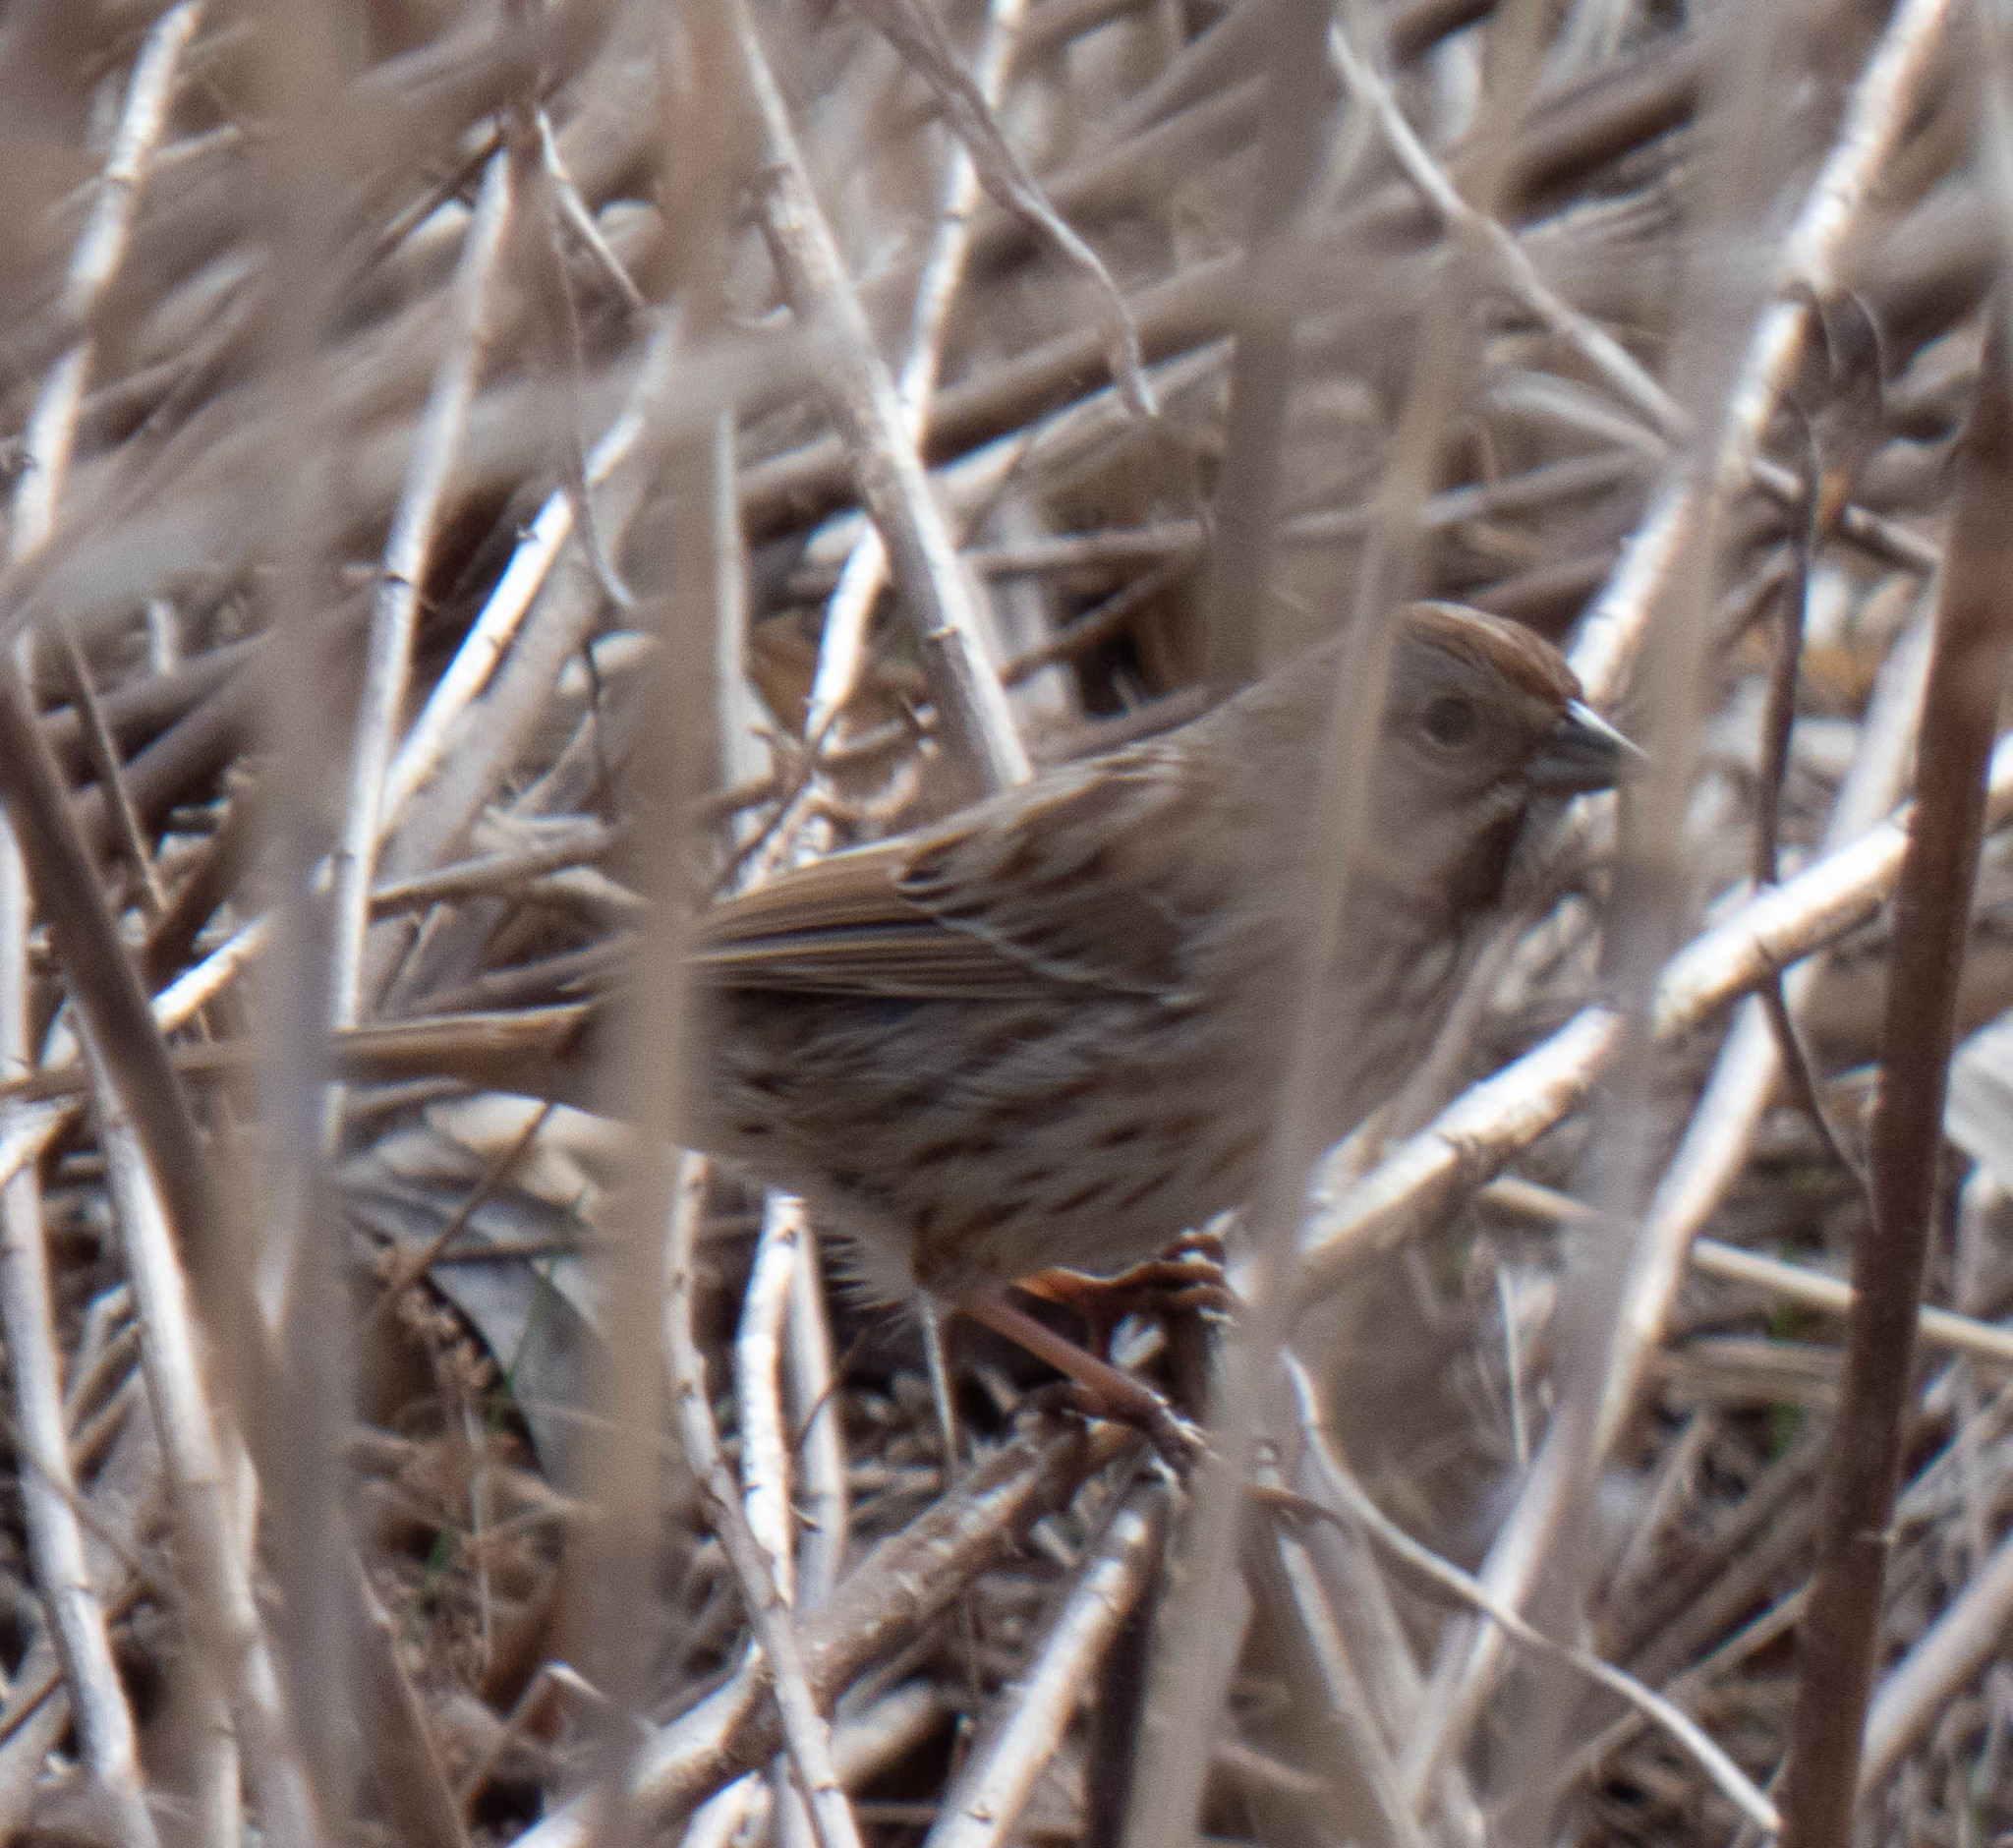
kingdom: Animalia
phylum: Chordata
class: Aves
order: Passeriformes
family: Passerellidae
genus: Melospiza
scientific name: Melospiza melodia
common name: Song sparrow
